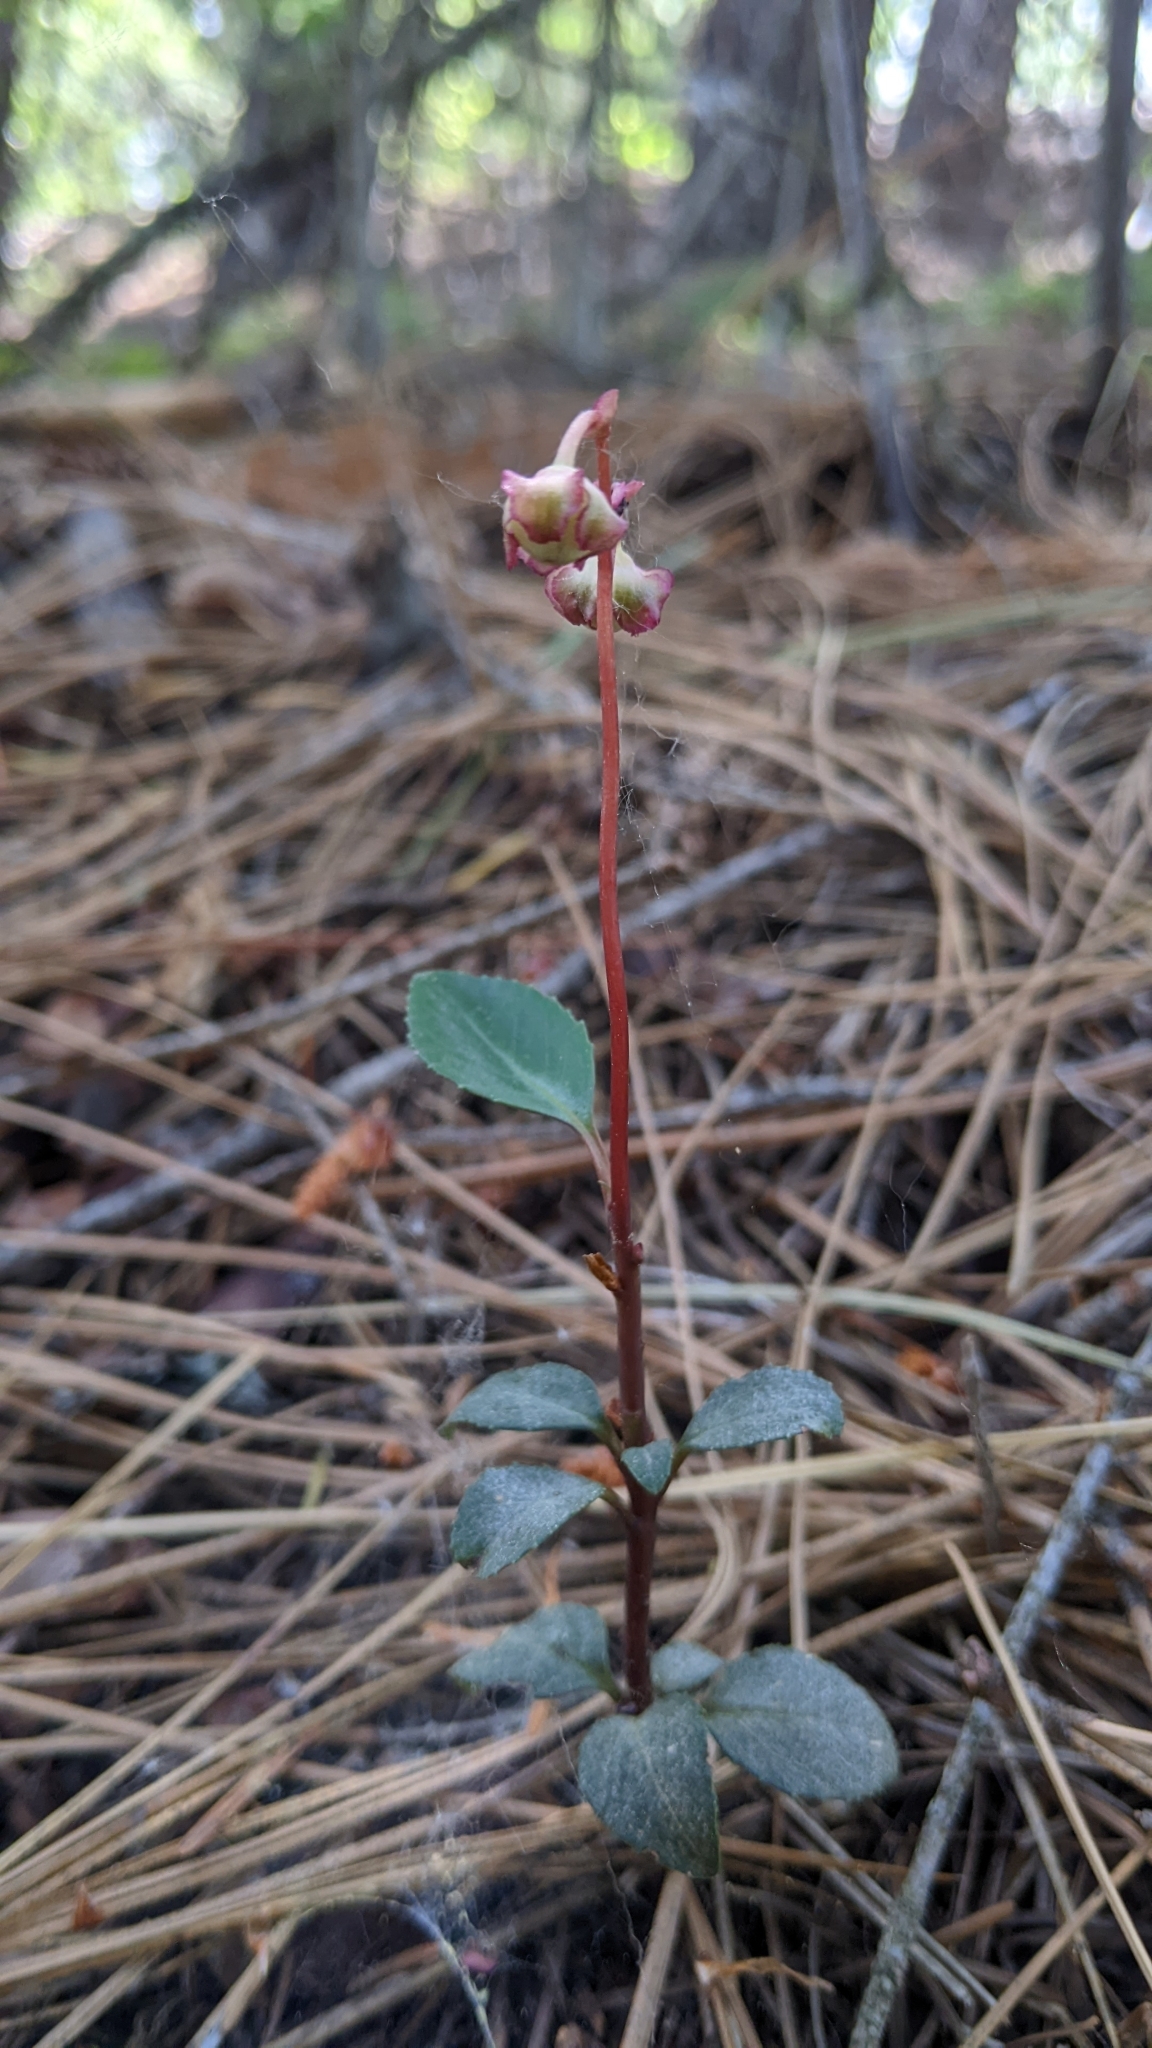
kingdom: Plantae
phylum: Tracheophyta
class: Magnoliopsida
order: Ericales
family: Ericaceae
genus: Chimaphila
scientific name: Chimaphila menziesii
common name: Menzies' pipsissewa
